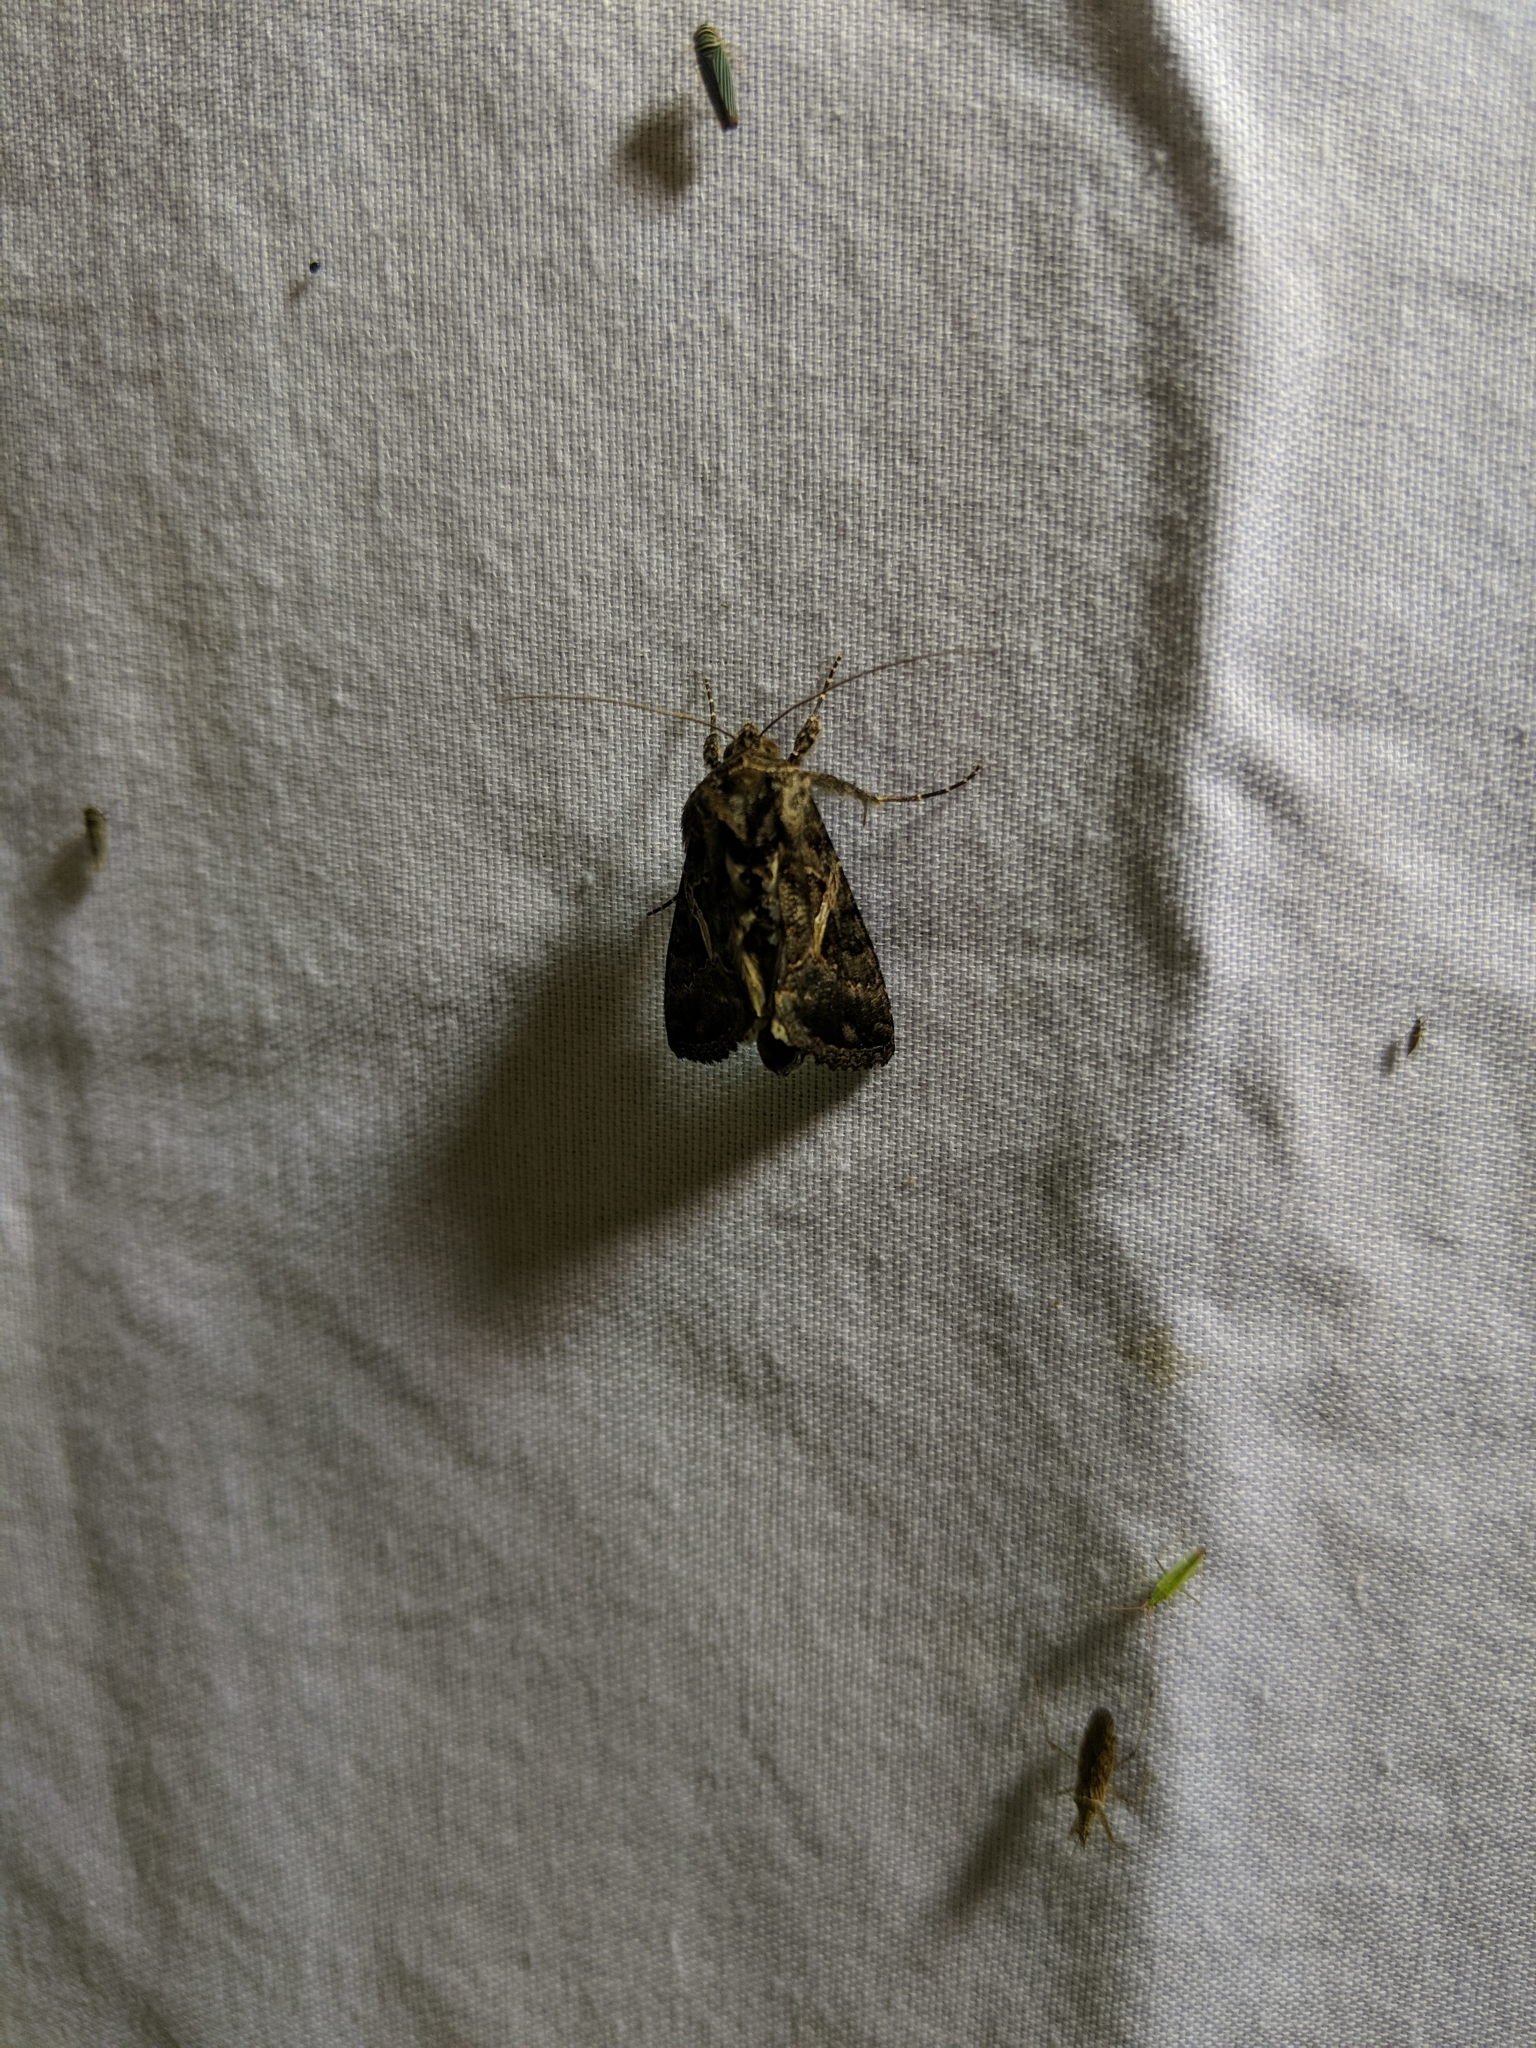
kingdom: Animalia
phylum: Arthropoda
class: Insecta
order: Lepidoptera
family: Noctuidae
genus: Ctenoplusia
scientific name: Ctenoplusia oxygramma
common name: Sharp-stigma looper moth
